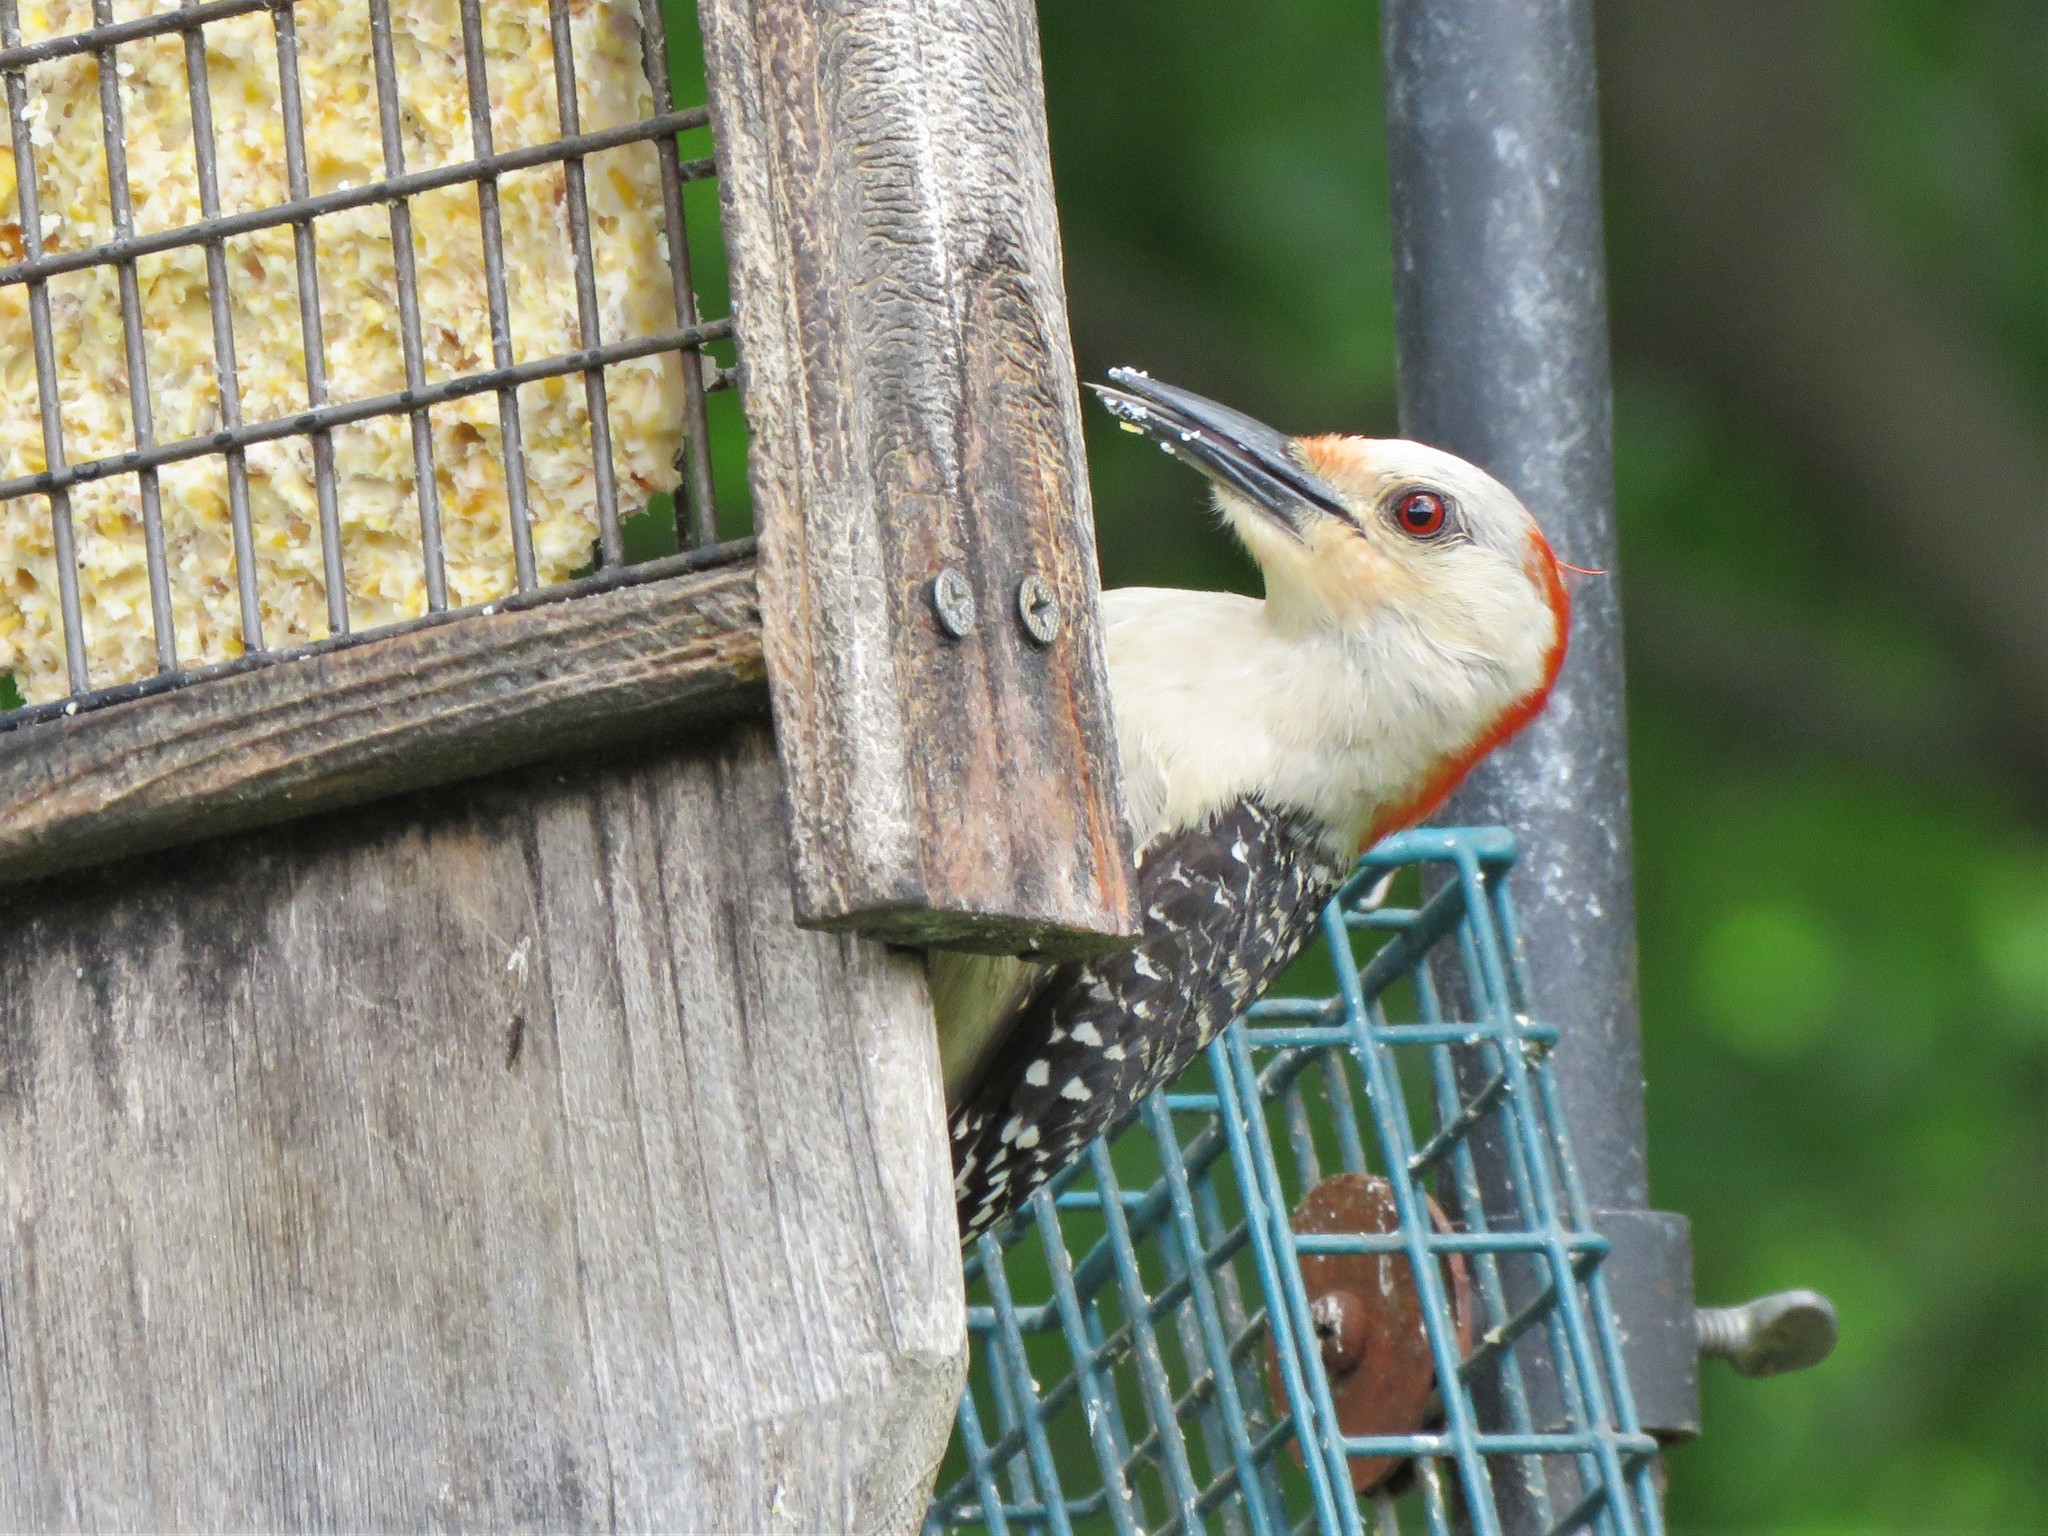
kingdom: Animalia
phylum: Chordata
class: Aves
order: Piciformes
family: Picidae
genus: Melanerpes
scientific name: Melanerpes carolinus
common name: Red-bellied woodpecker
